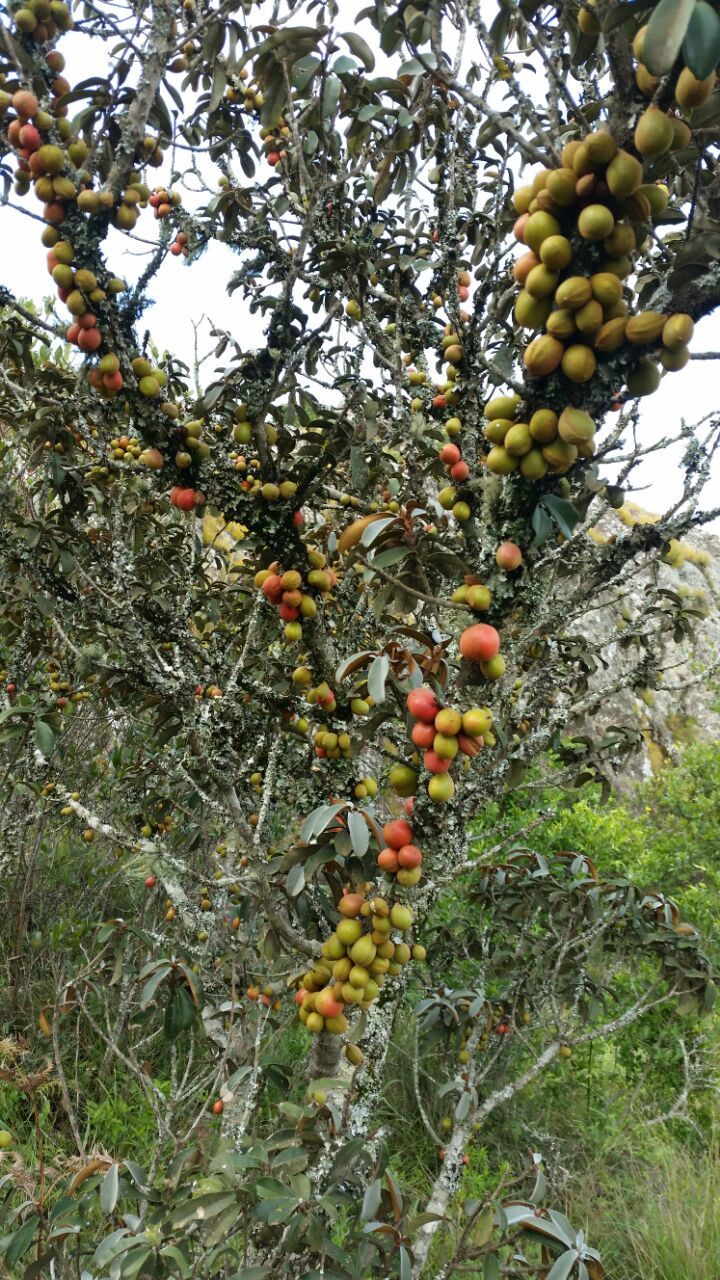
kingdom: Plantae
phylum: Tracheophyta
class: Magnoliopsida
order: Ericales
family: Sapotaceae
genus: Englerophytum
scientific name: Englerophytum magalismontanum
